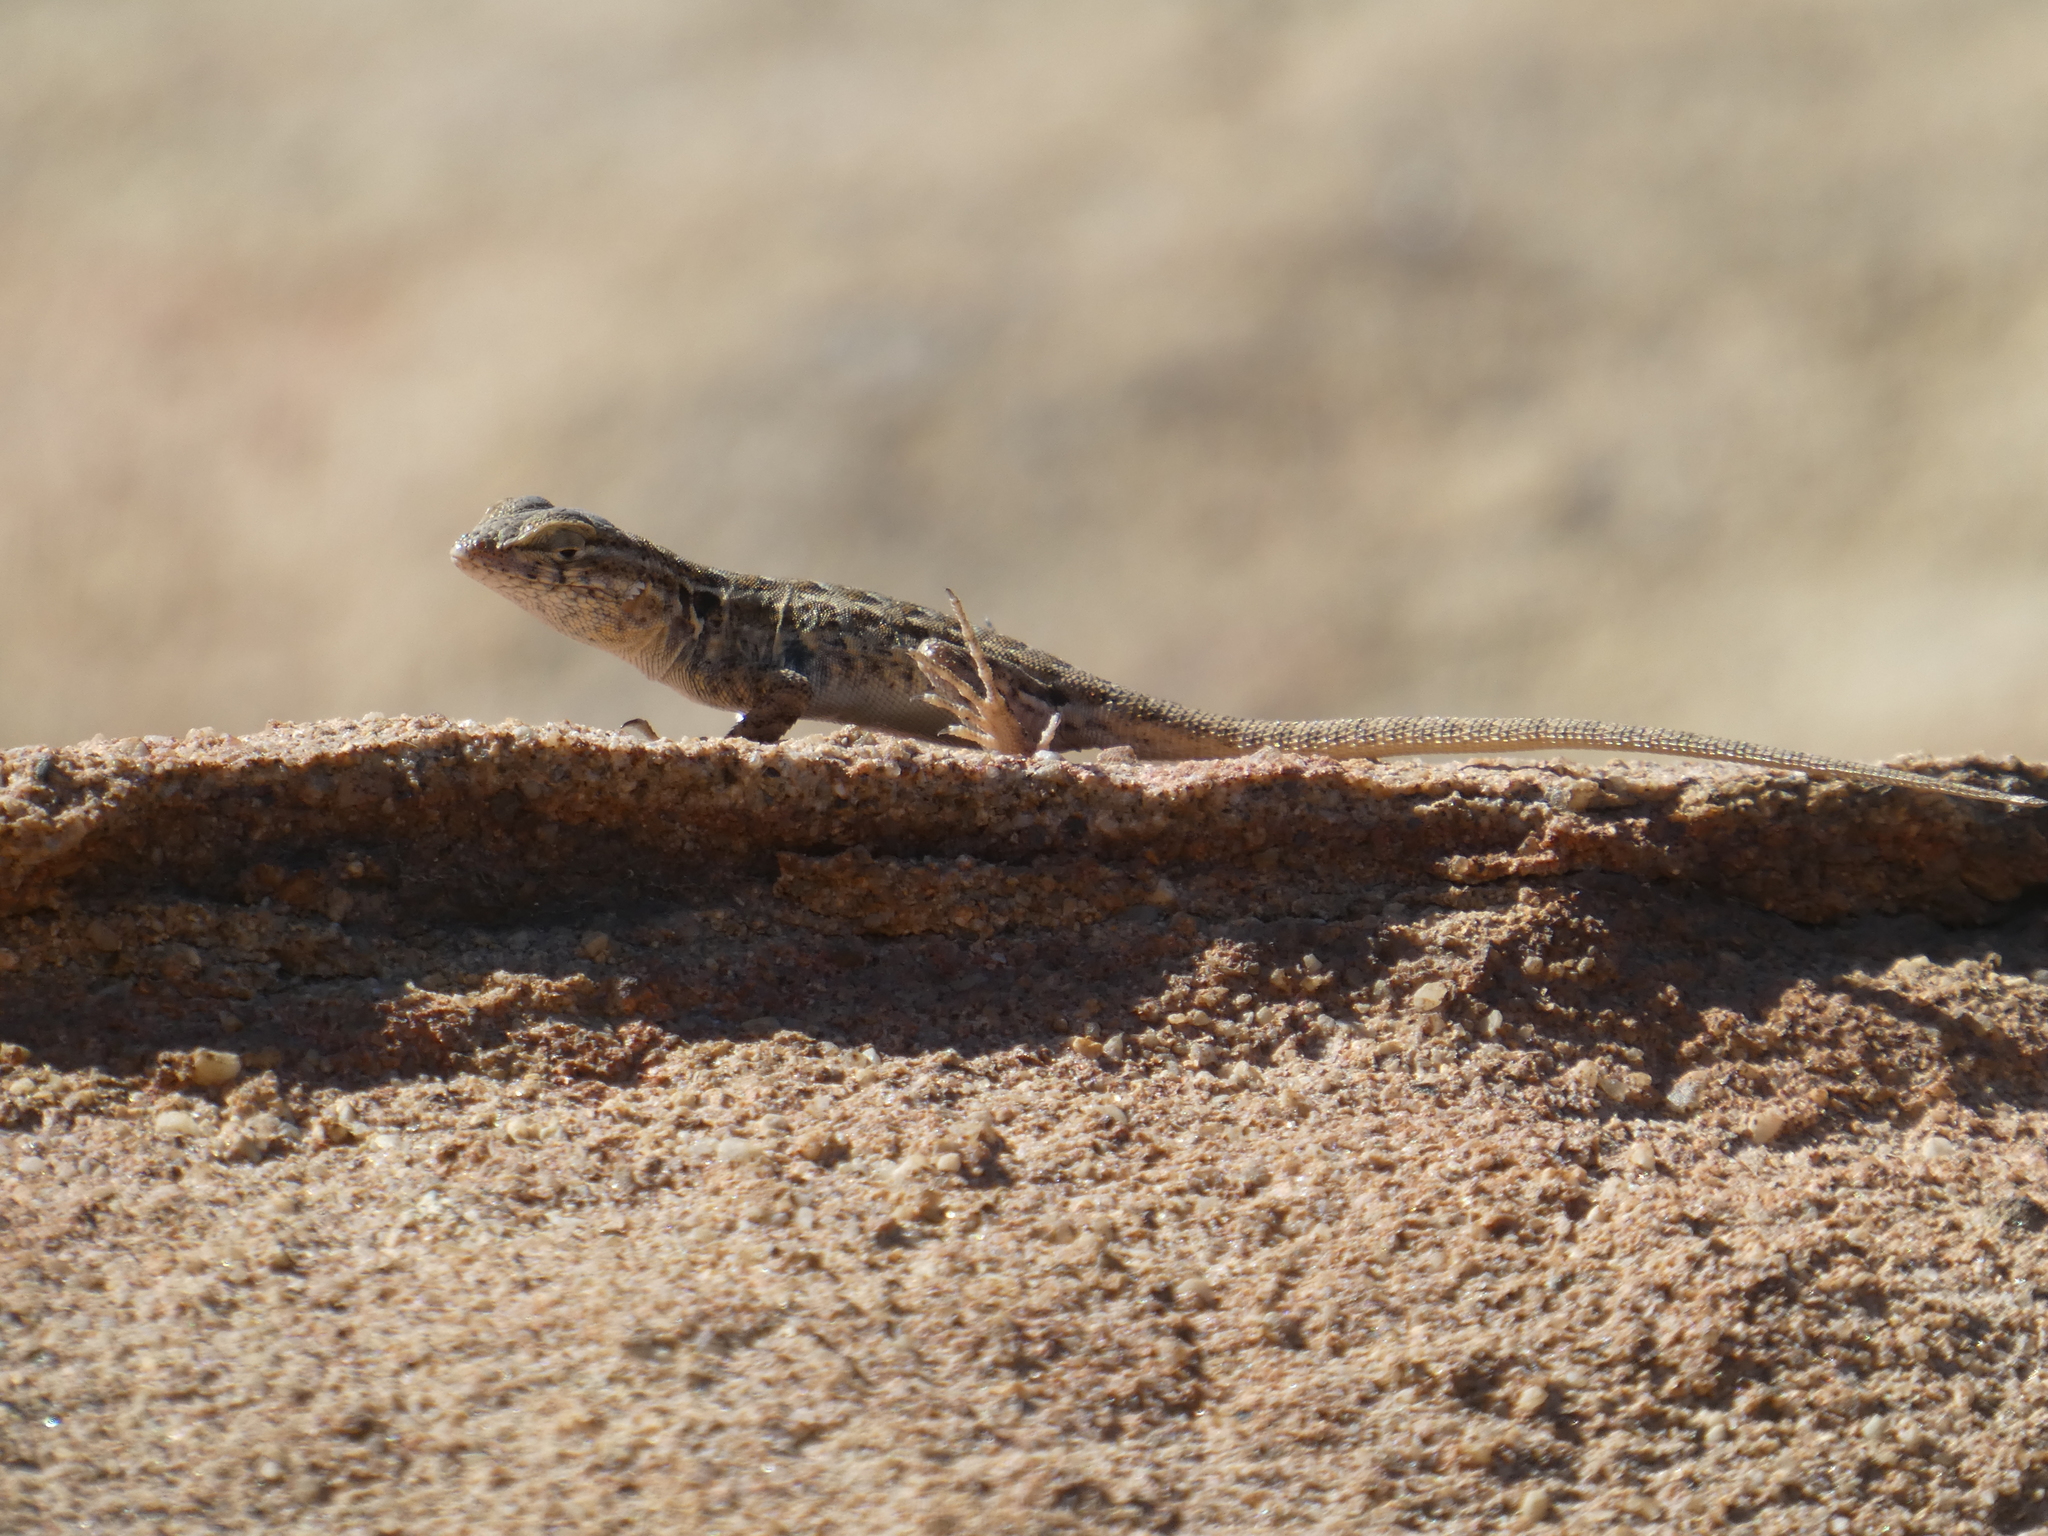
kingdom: Animalia
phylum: Chordata
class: Squamata
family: Phrynosomatidae
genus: Uta
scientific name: Uta stansburiana
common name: Side-blotched lizard
